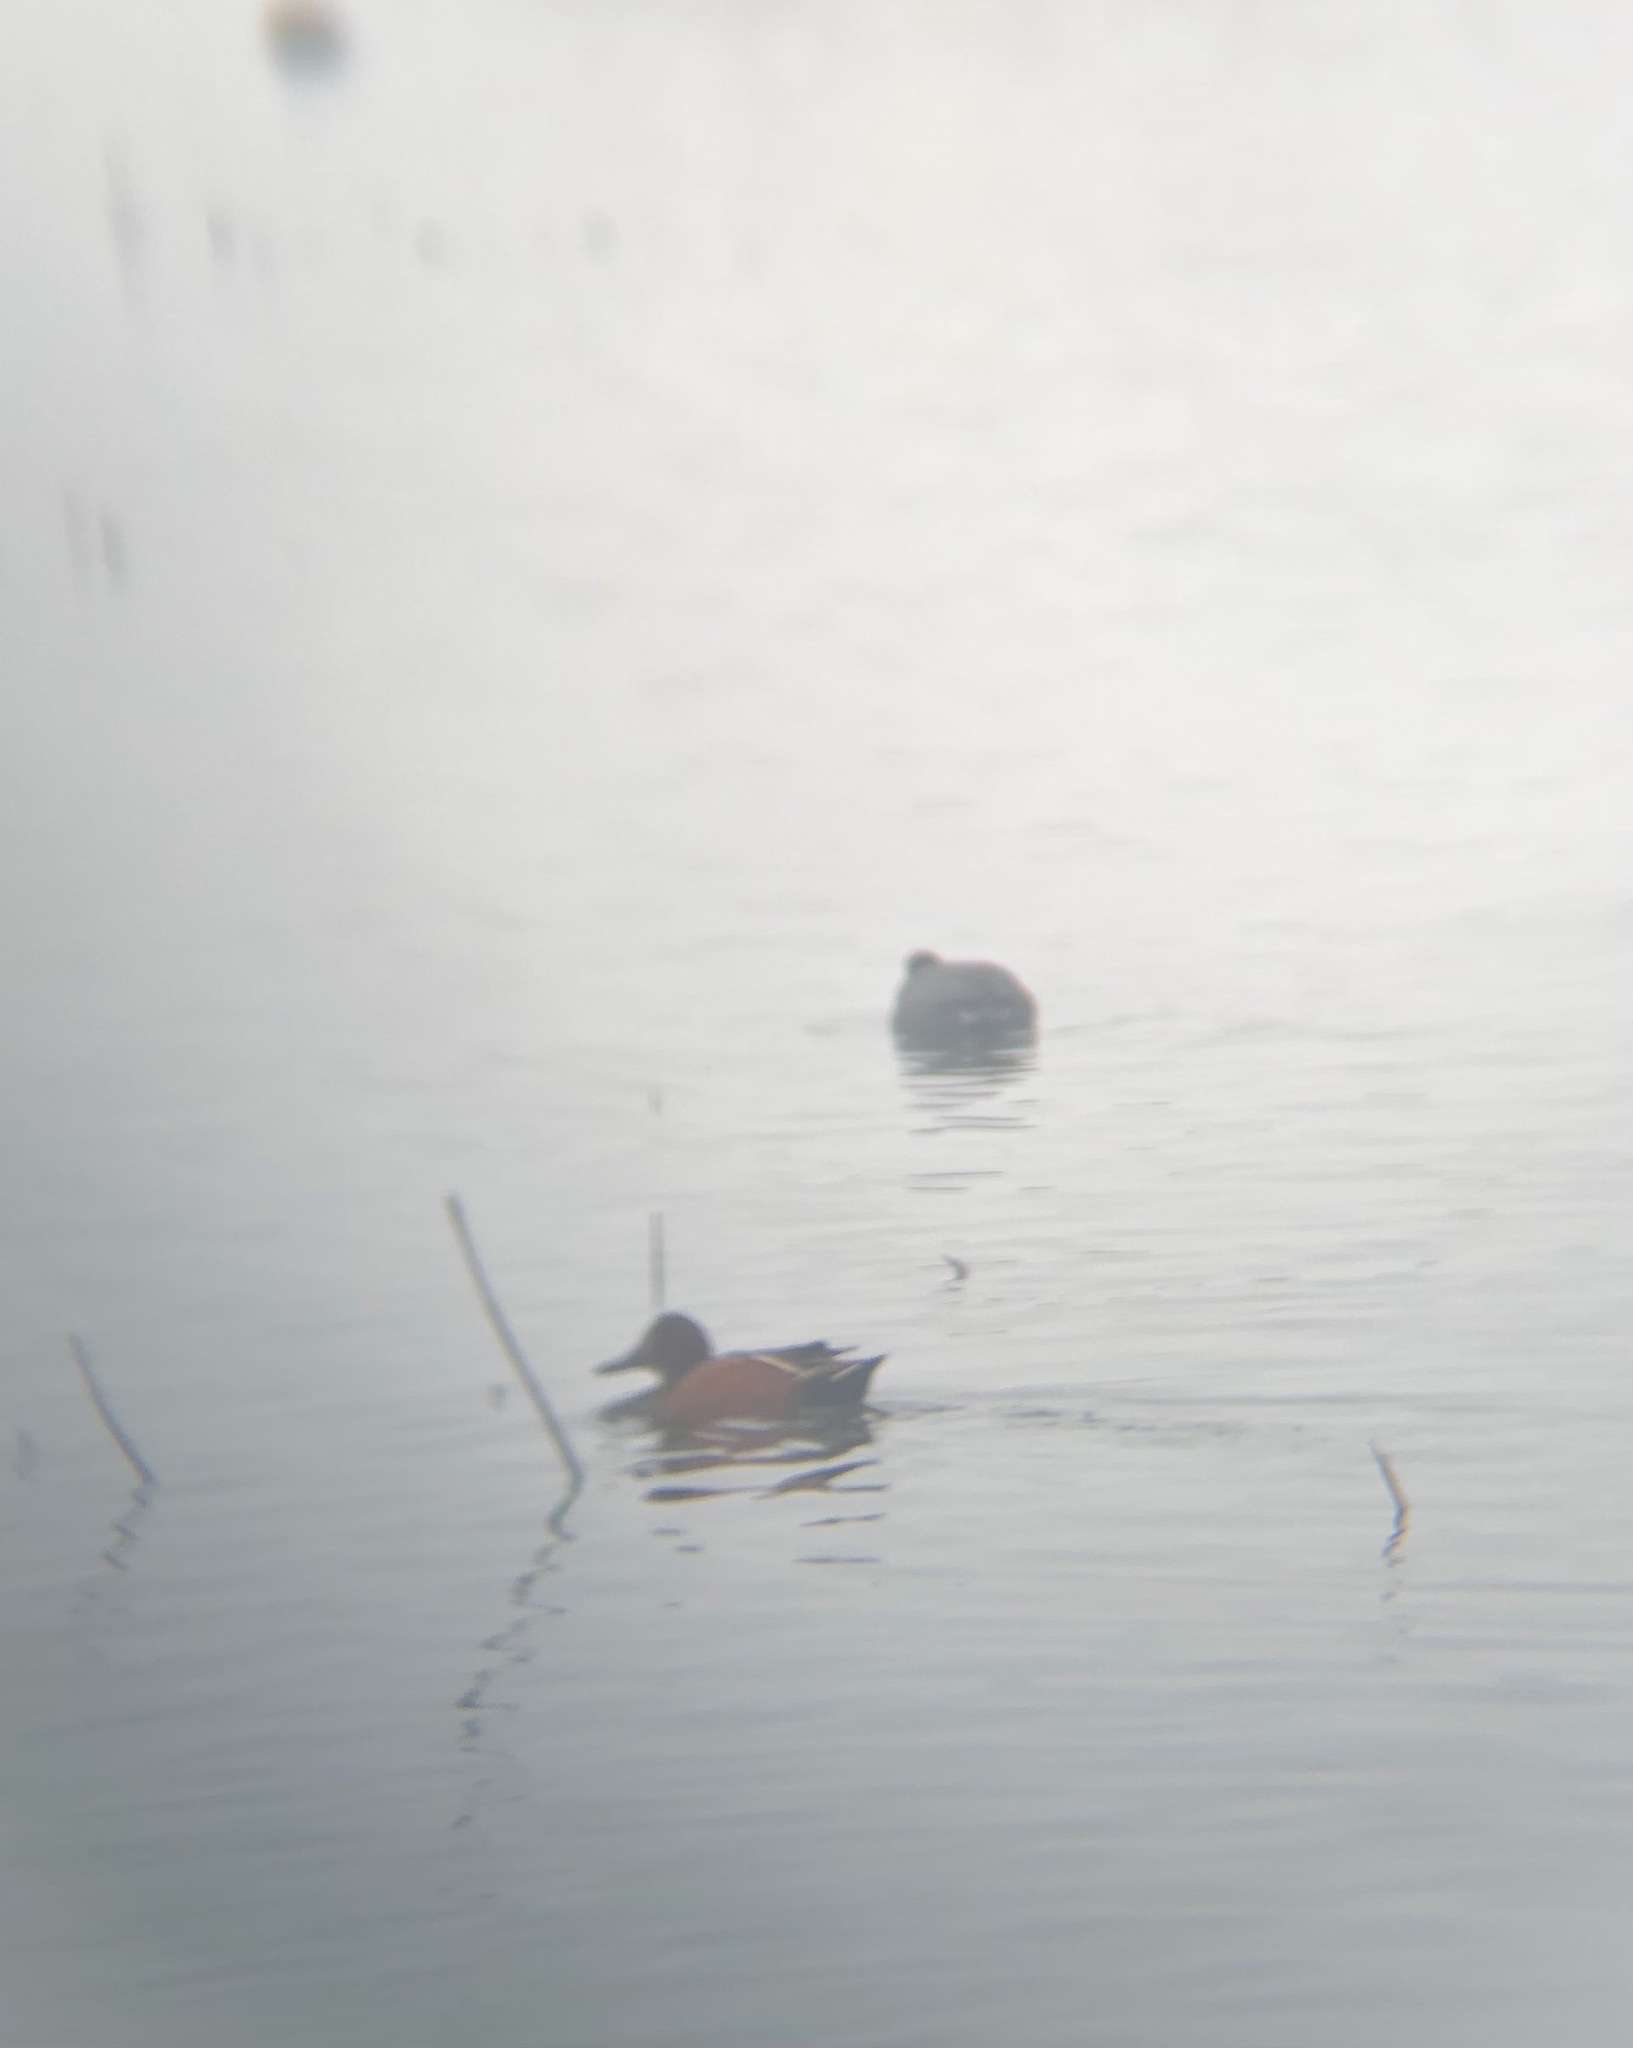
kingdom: Animalia
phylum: Chordata
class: Aves
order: Anseriformes
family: Anatidae
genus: Spatula
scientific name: Spatula cyanoptera
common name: Cinnamon teal
